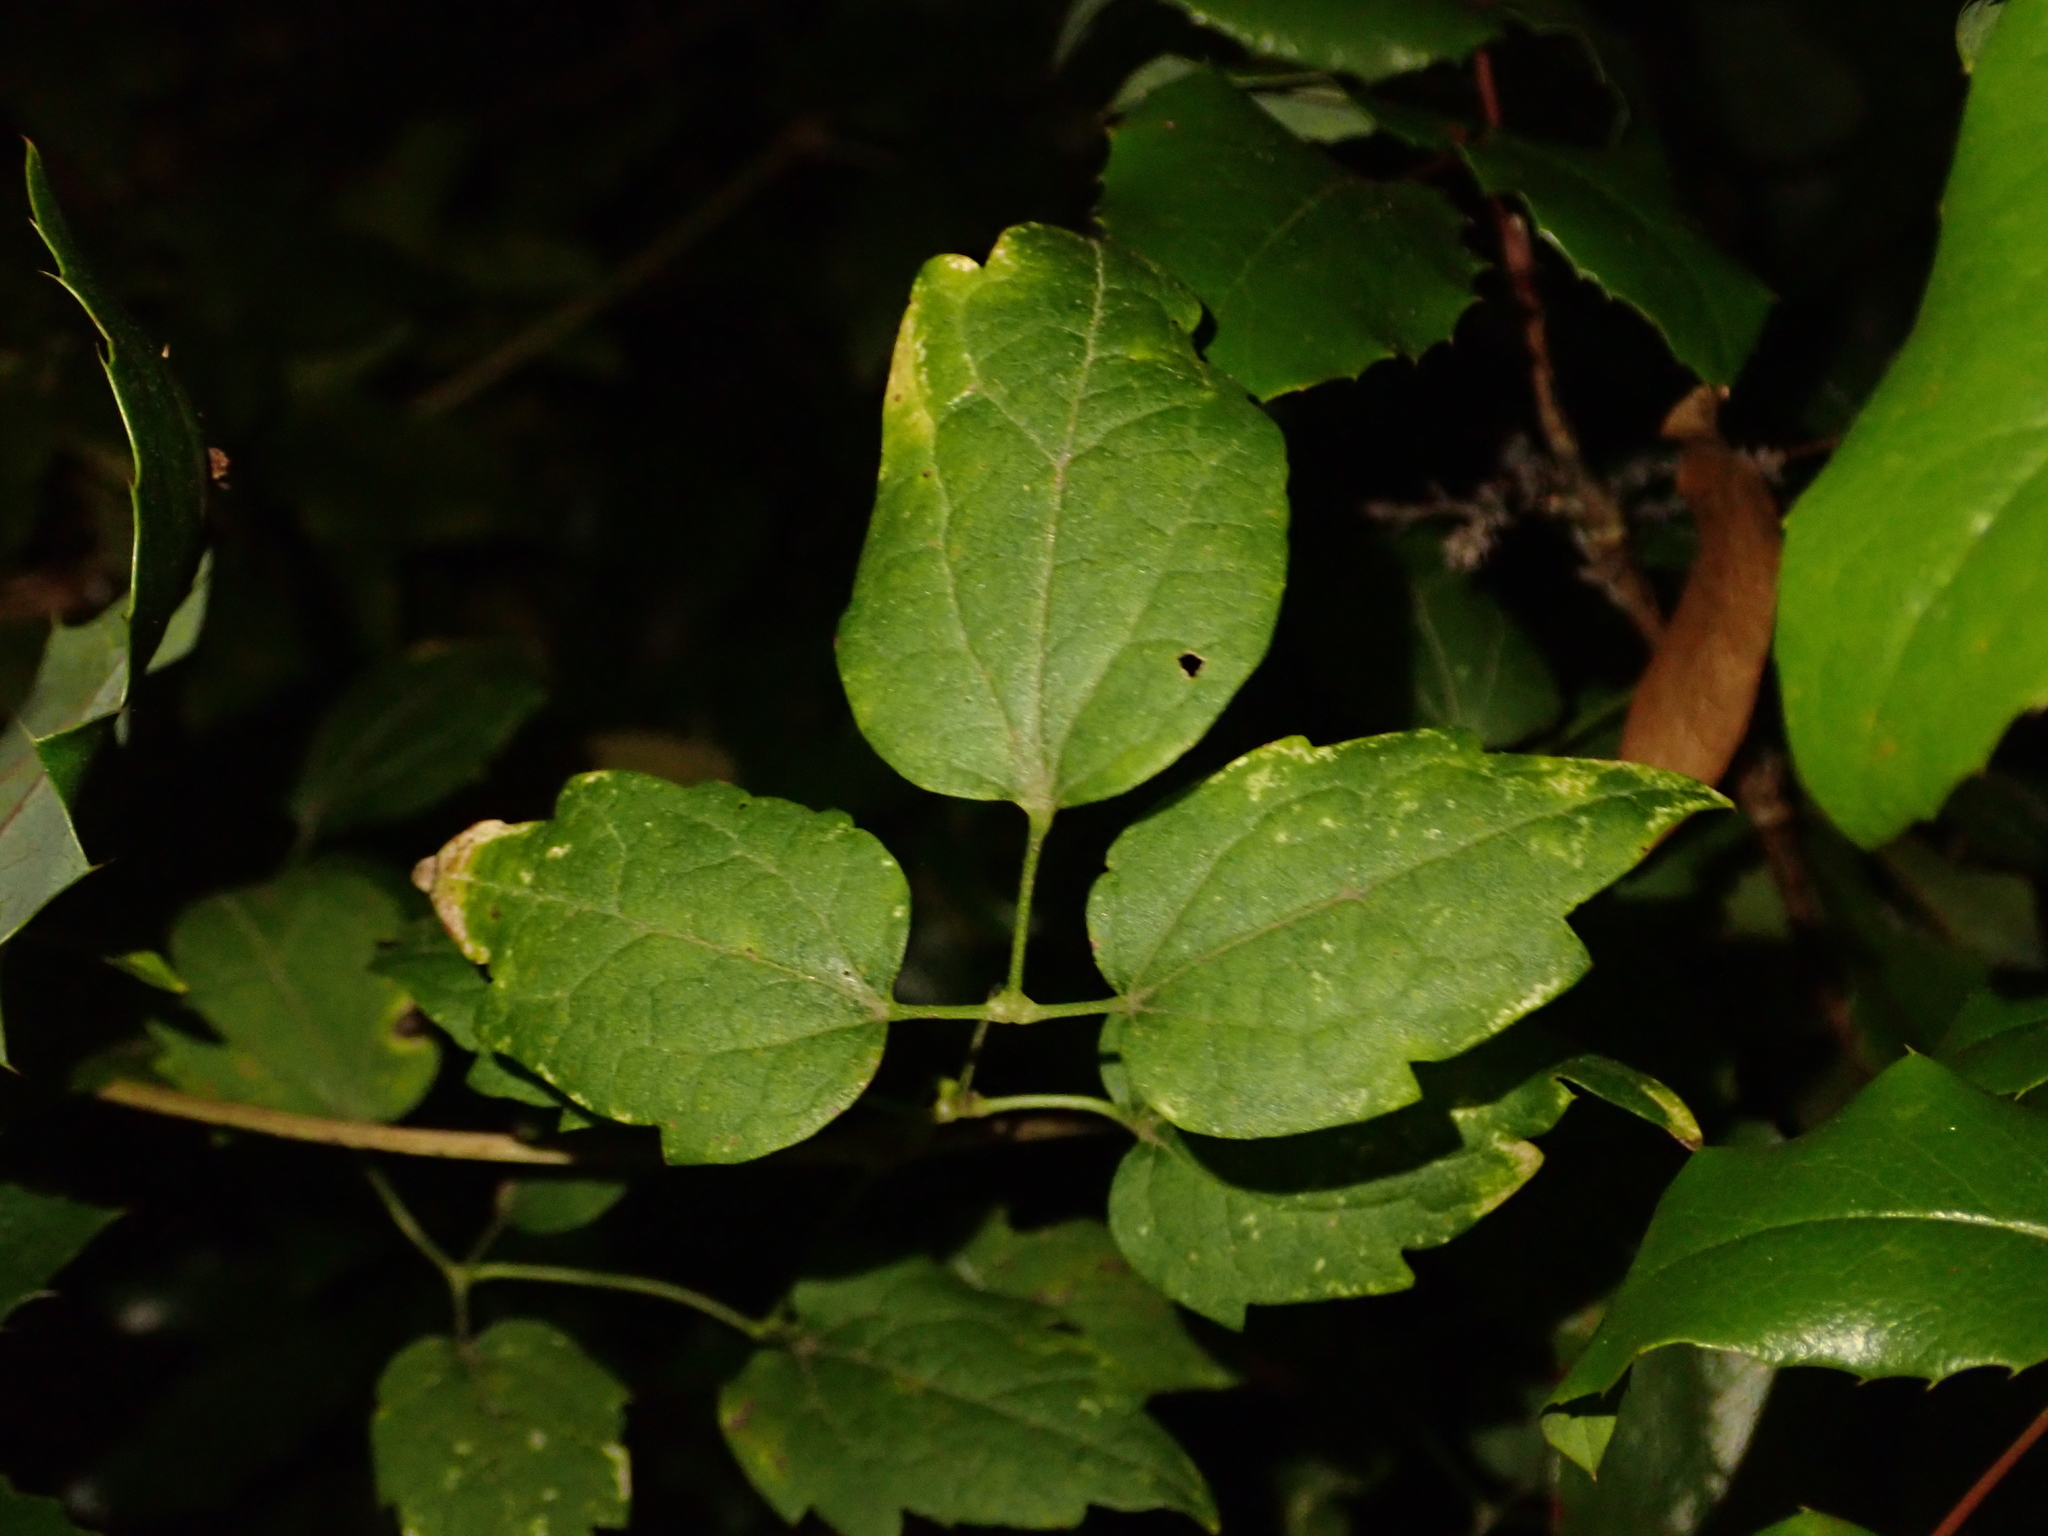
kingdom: Plantae
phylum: Tracheophyta
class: Magnoliopsida
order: Ranunculales
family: Ranunculaceae
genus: Clematis
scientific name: Clematis vitalba
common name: Evergreen clematis
